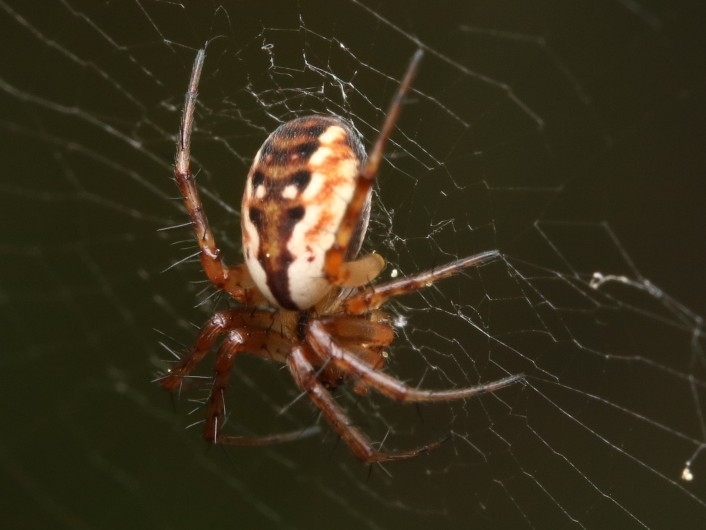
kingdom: Animalia
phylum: Arthropoda
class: Arachnida
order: Araneae
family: Araneidae
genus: Mangora
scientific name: Mangora placida
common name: Tuft-legged orbweaver
